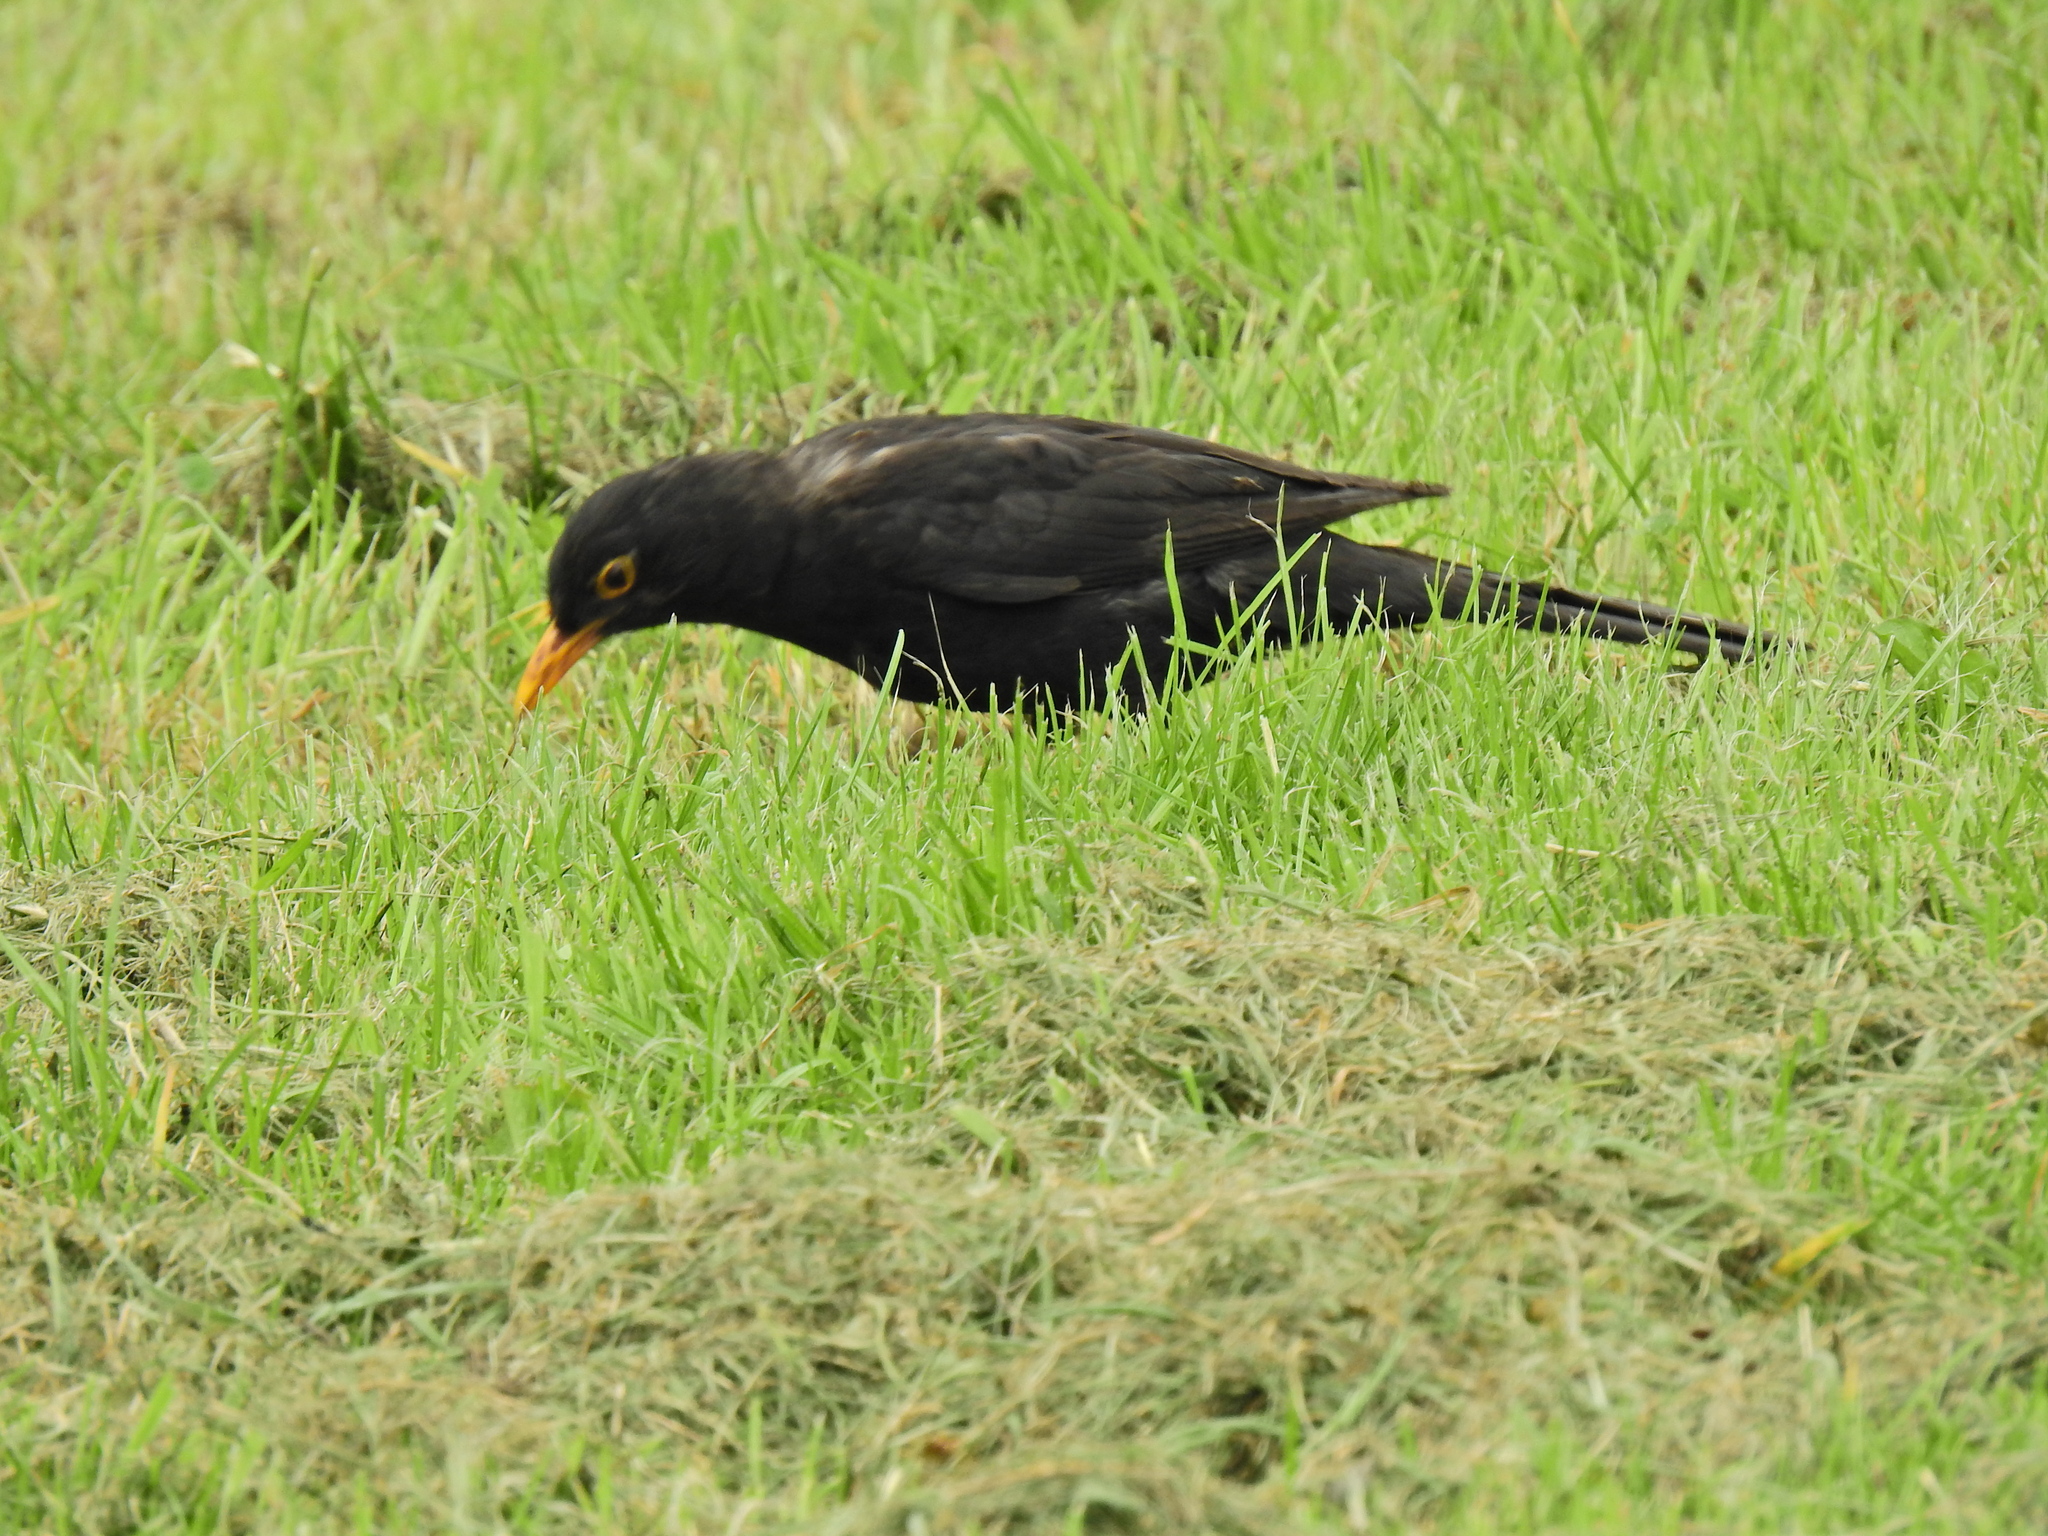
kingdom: Animalia
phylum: Chordata
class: Aves
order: Passeriformes
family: Turdidae
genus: Turdus
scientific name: Turdus merula
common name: Common blackbird
